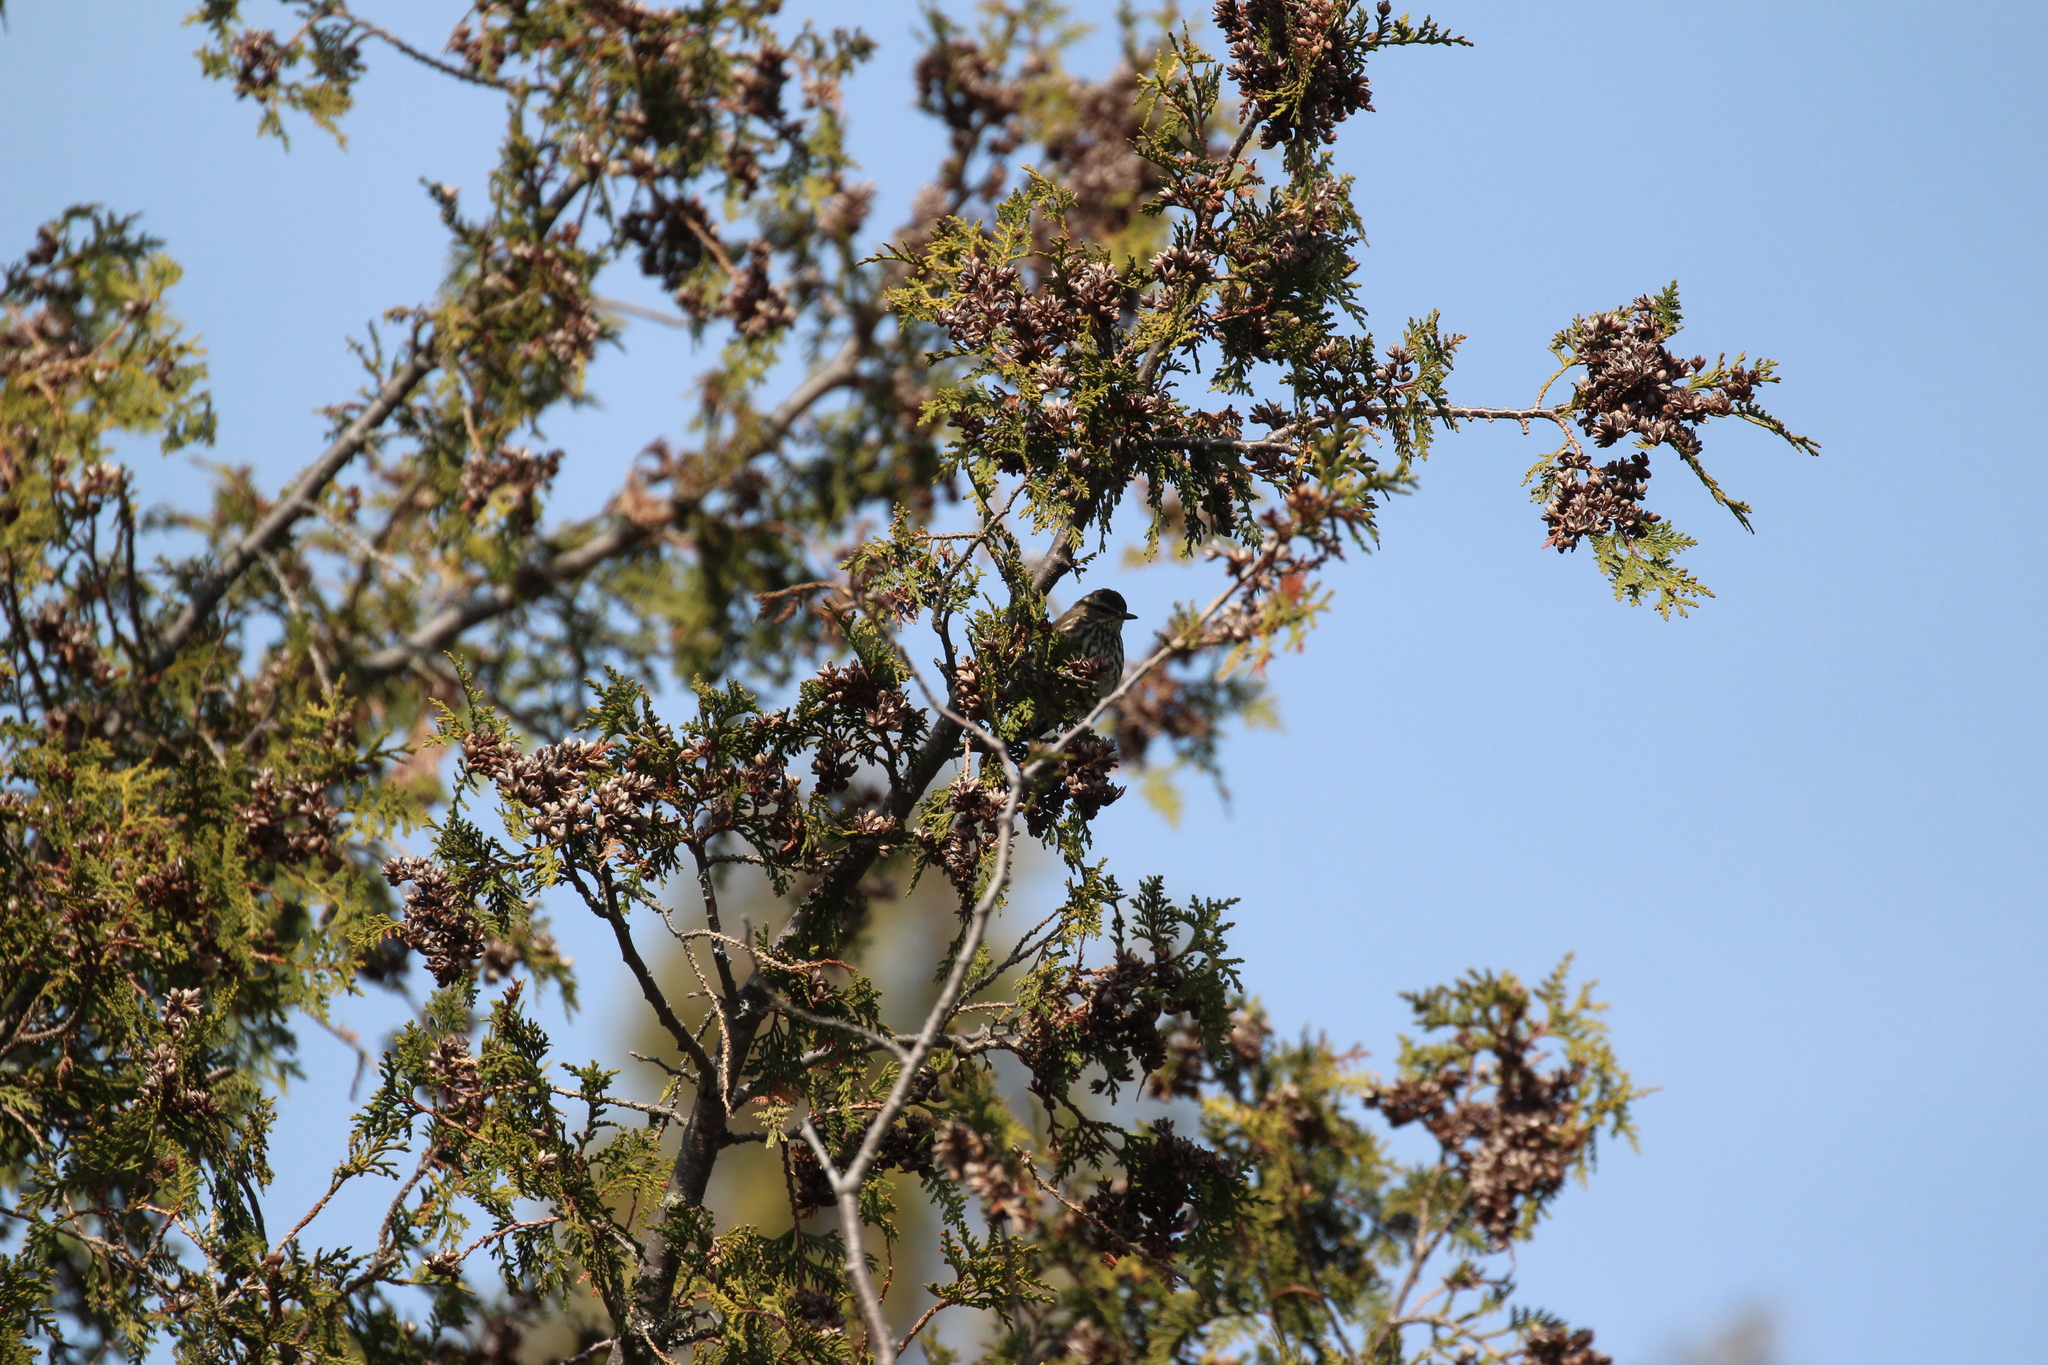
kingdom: Animalia
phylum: Chordata
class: Aves
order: Passeriformes
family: Parulidae
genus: Parkesia
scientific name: Parkesia noveboracensis
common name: Northern waterthrush
